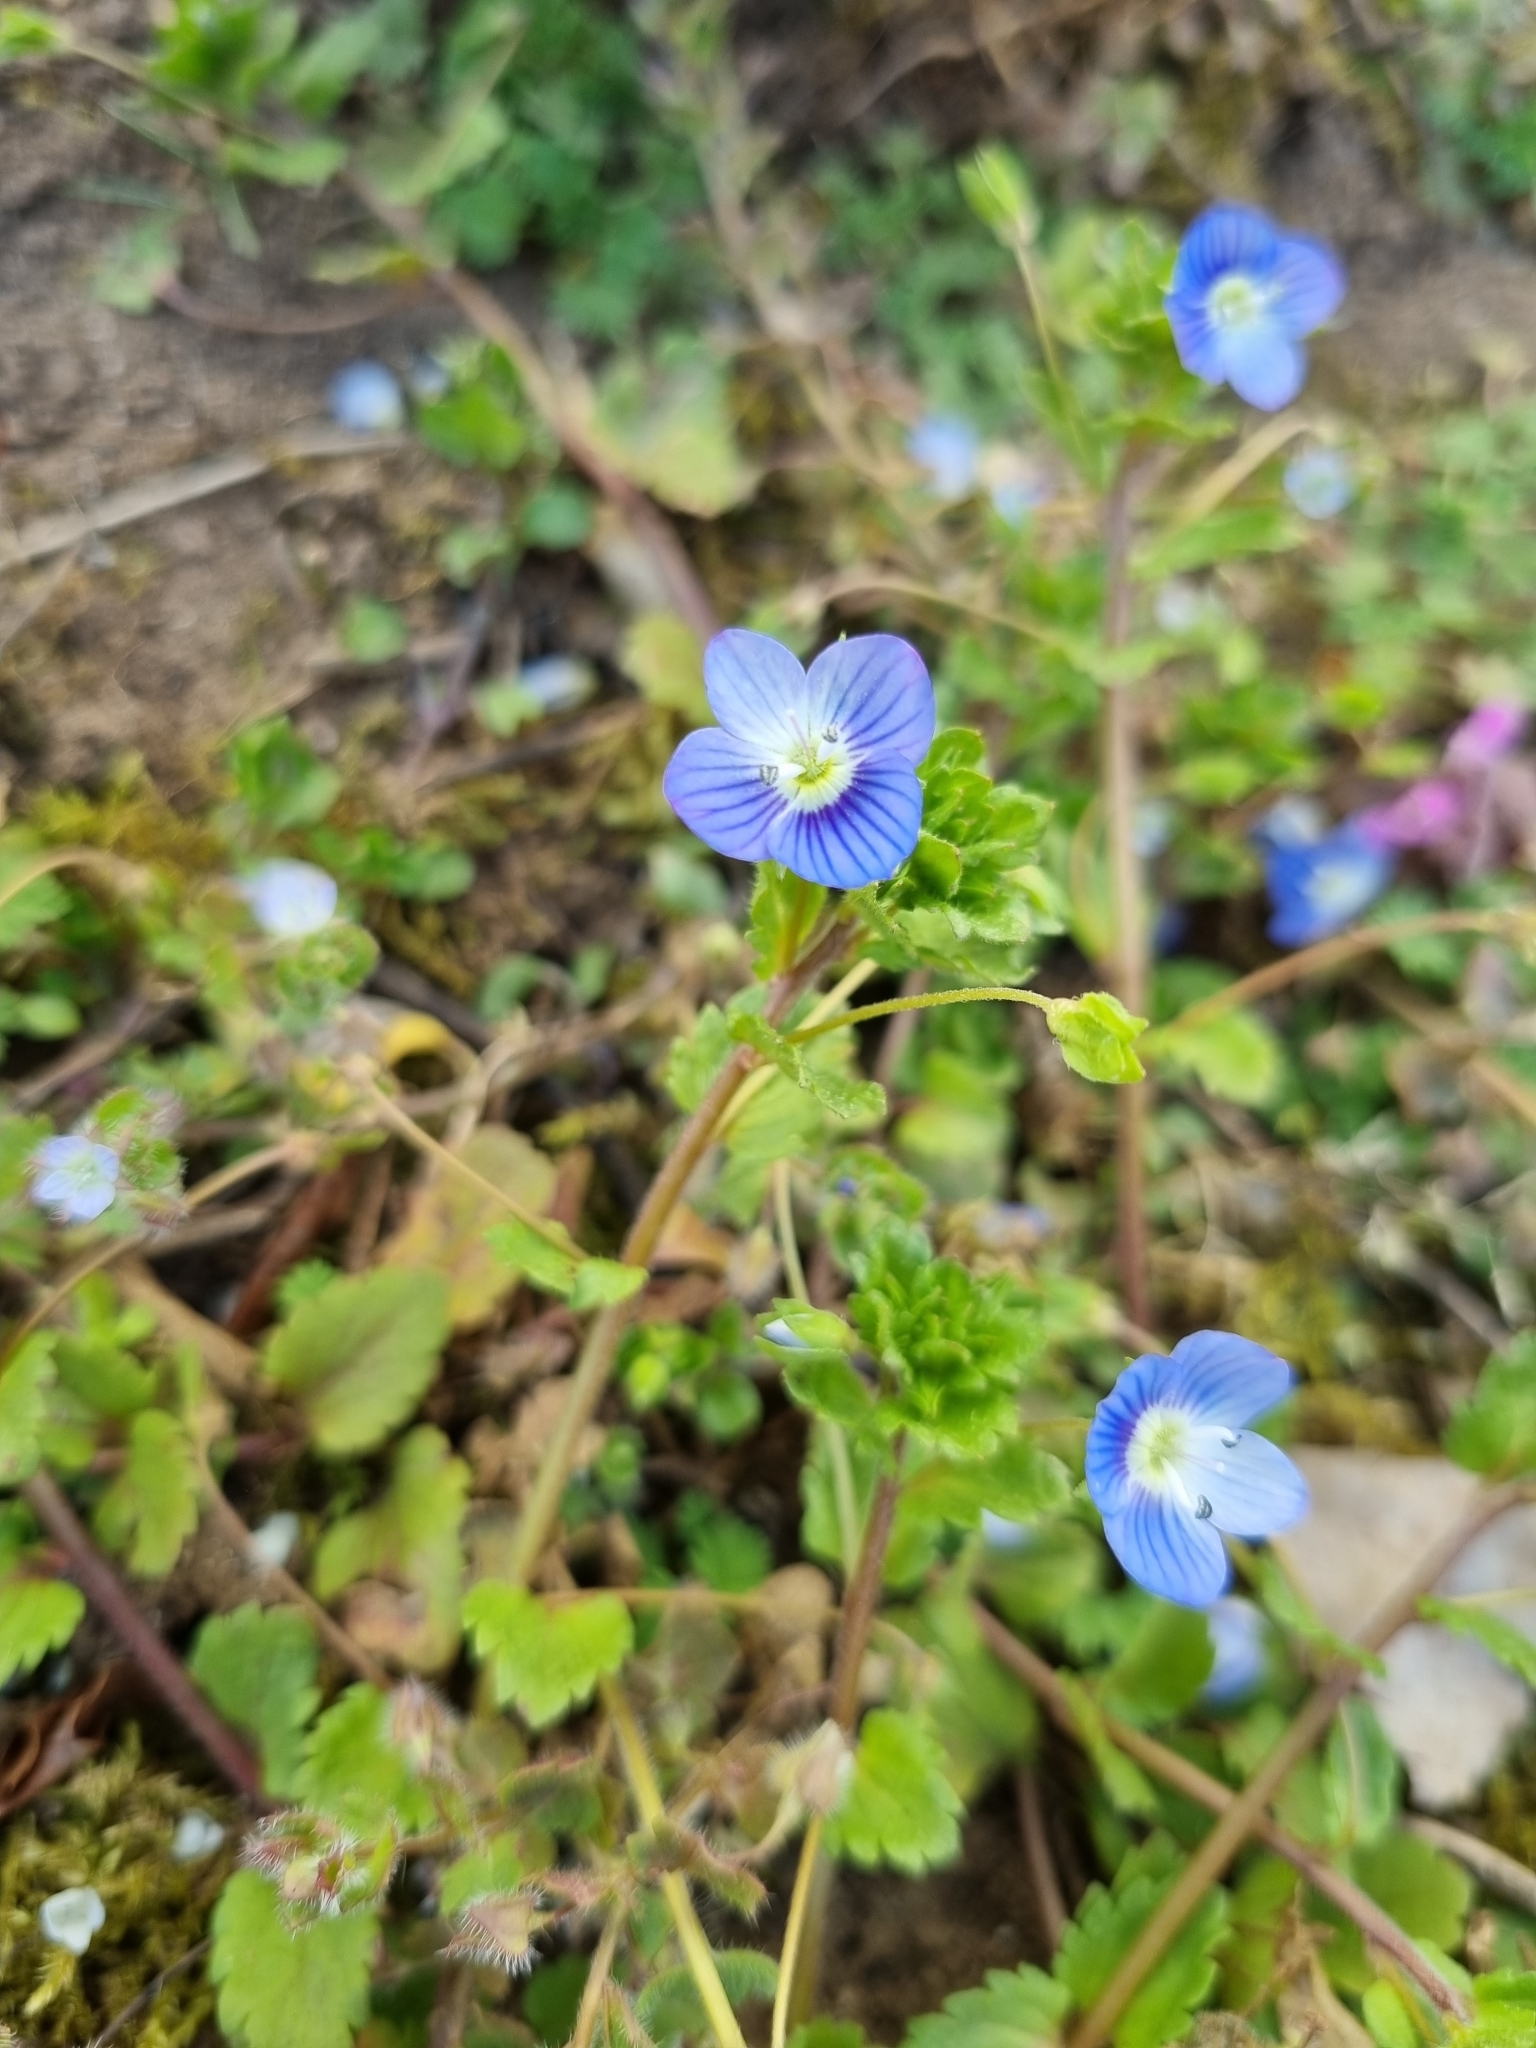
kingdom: Plantae
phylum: Tracheophyta
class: Magnoliopsida
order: Lamiales
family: Plantaginaceae
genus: Veronica
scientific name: Veronica persica
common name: Common field-speedwell
